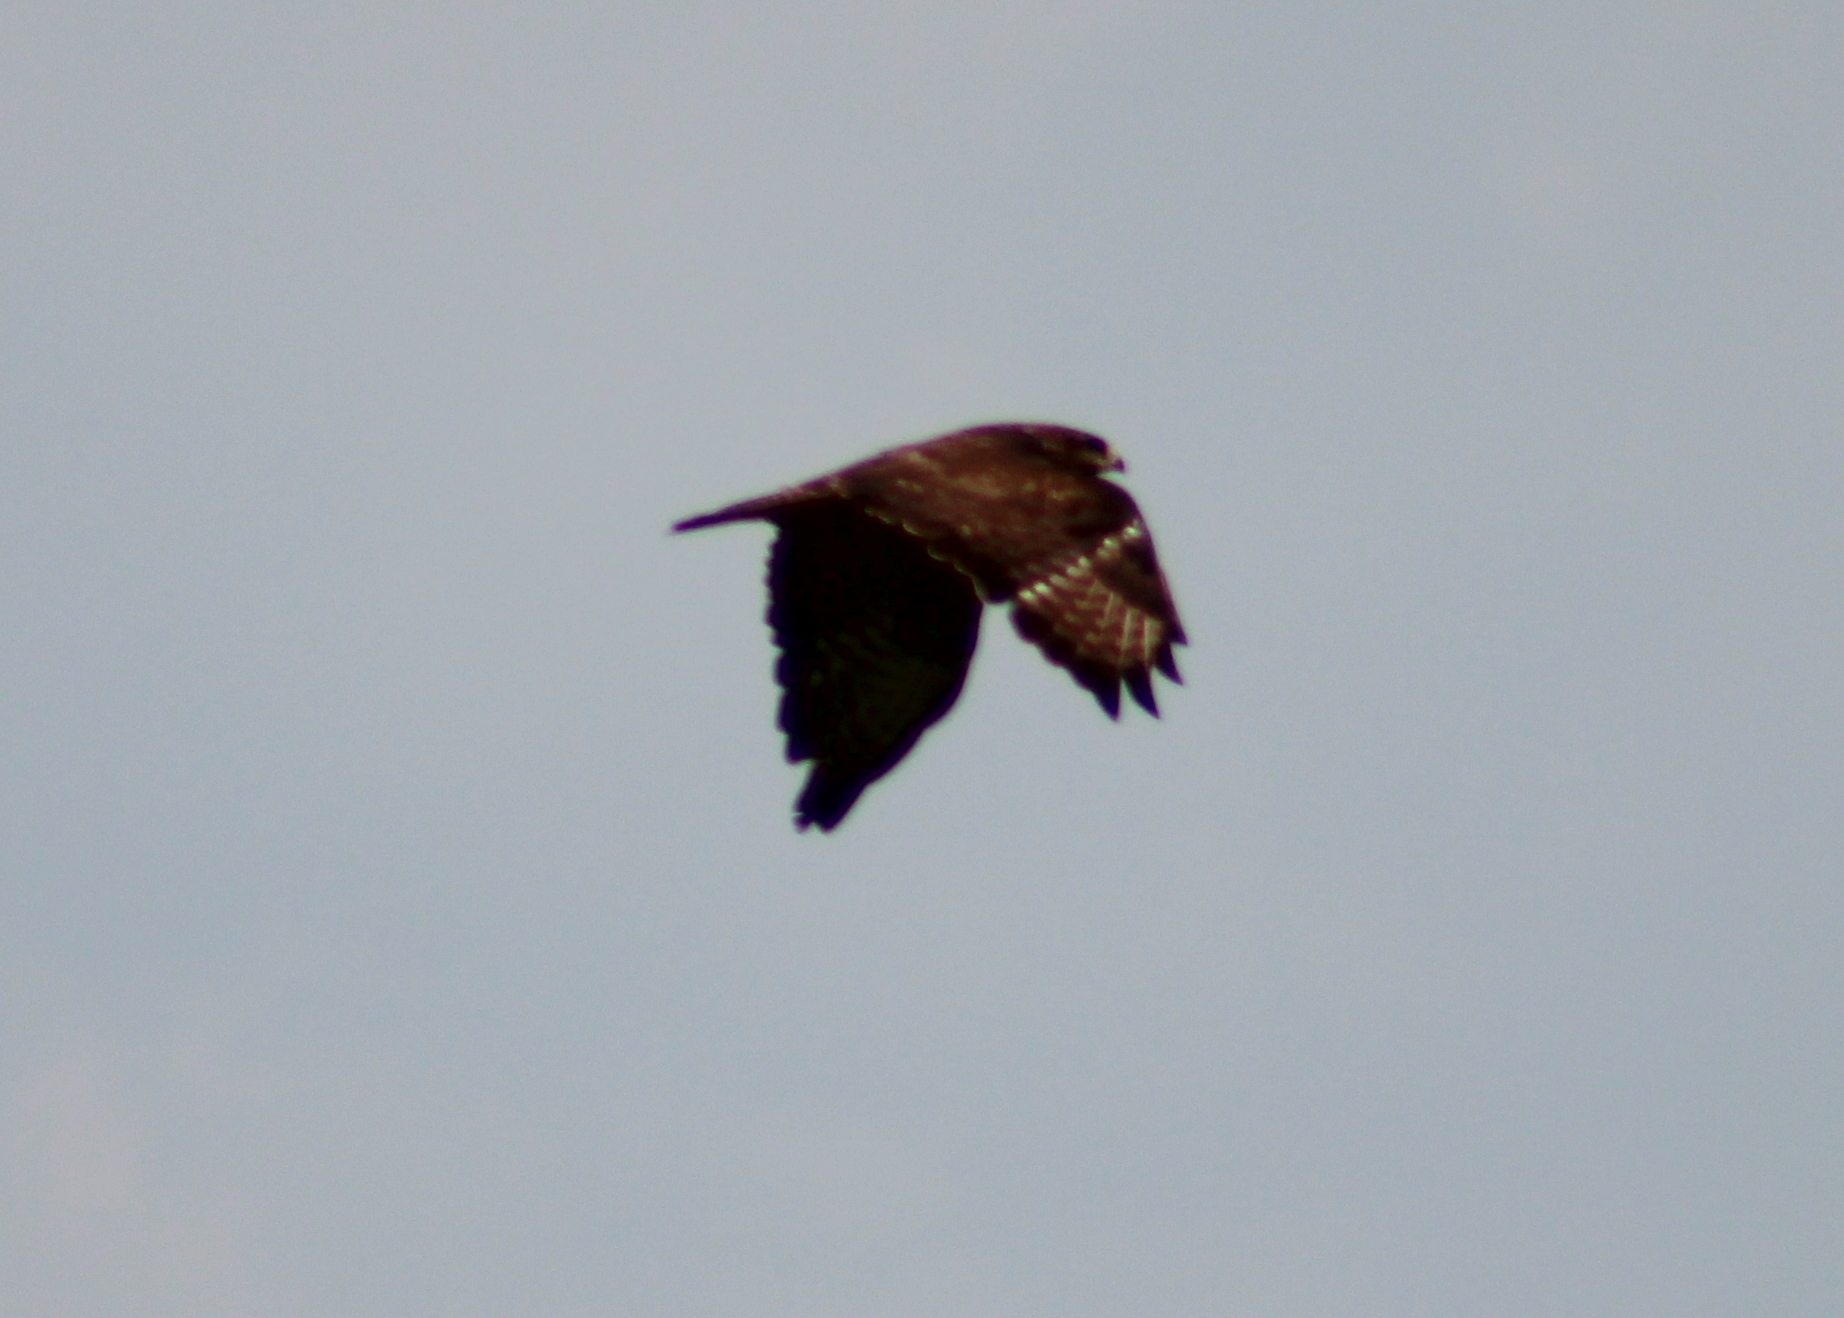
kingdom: Animalia
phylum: Chordata
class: Aves
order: Accipitriformes
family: Accipitridae
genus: Buteo
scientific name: Buteo buteo
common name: Common buzzard
